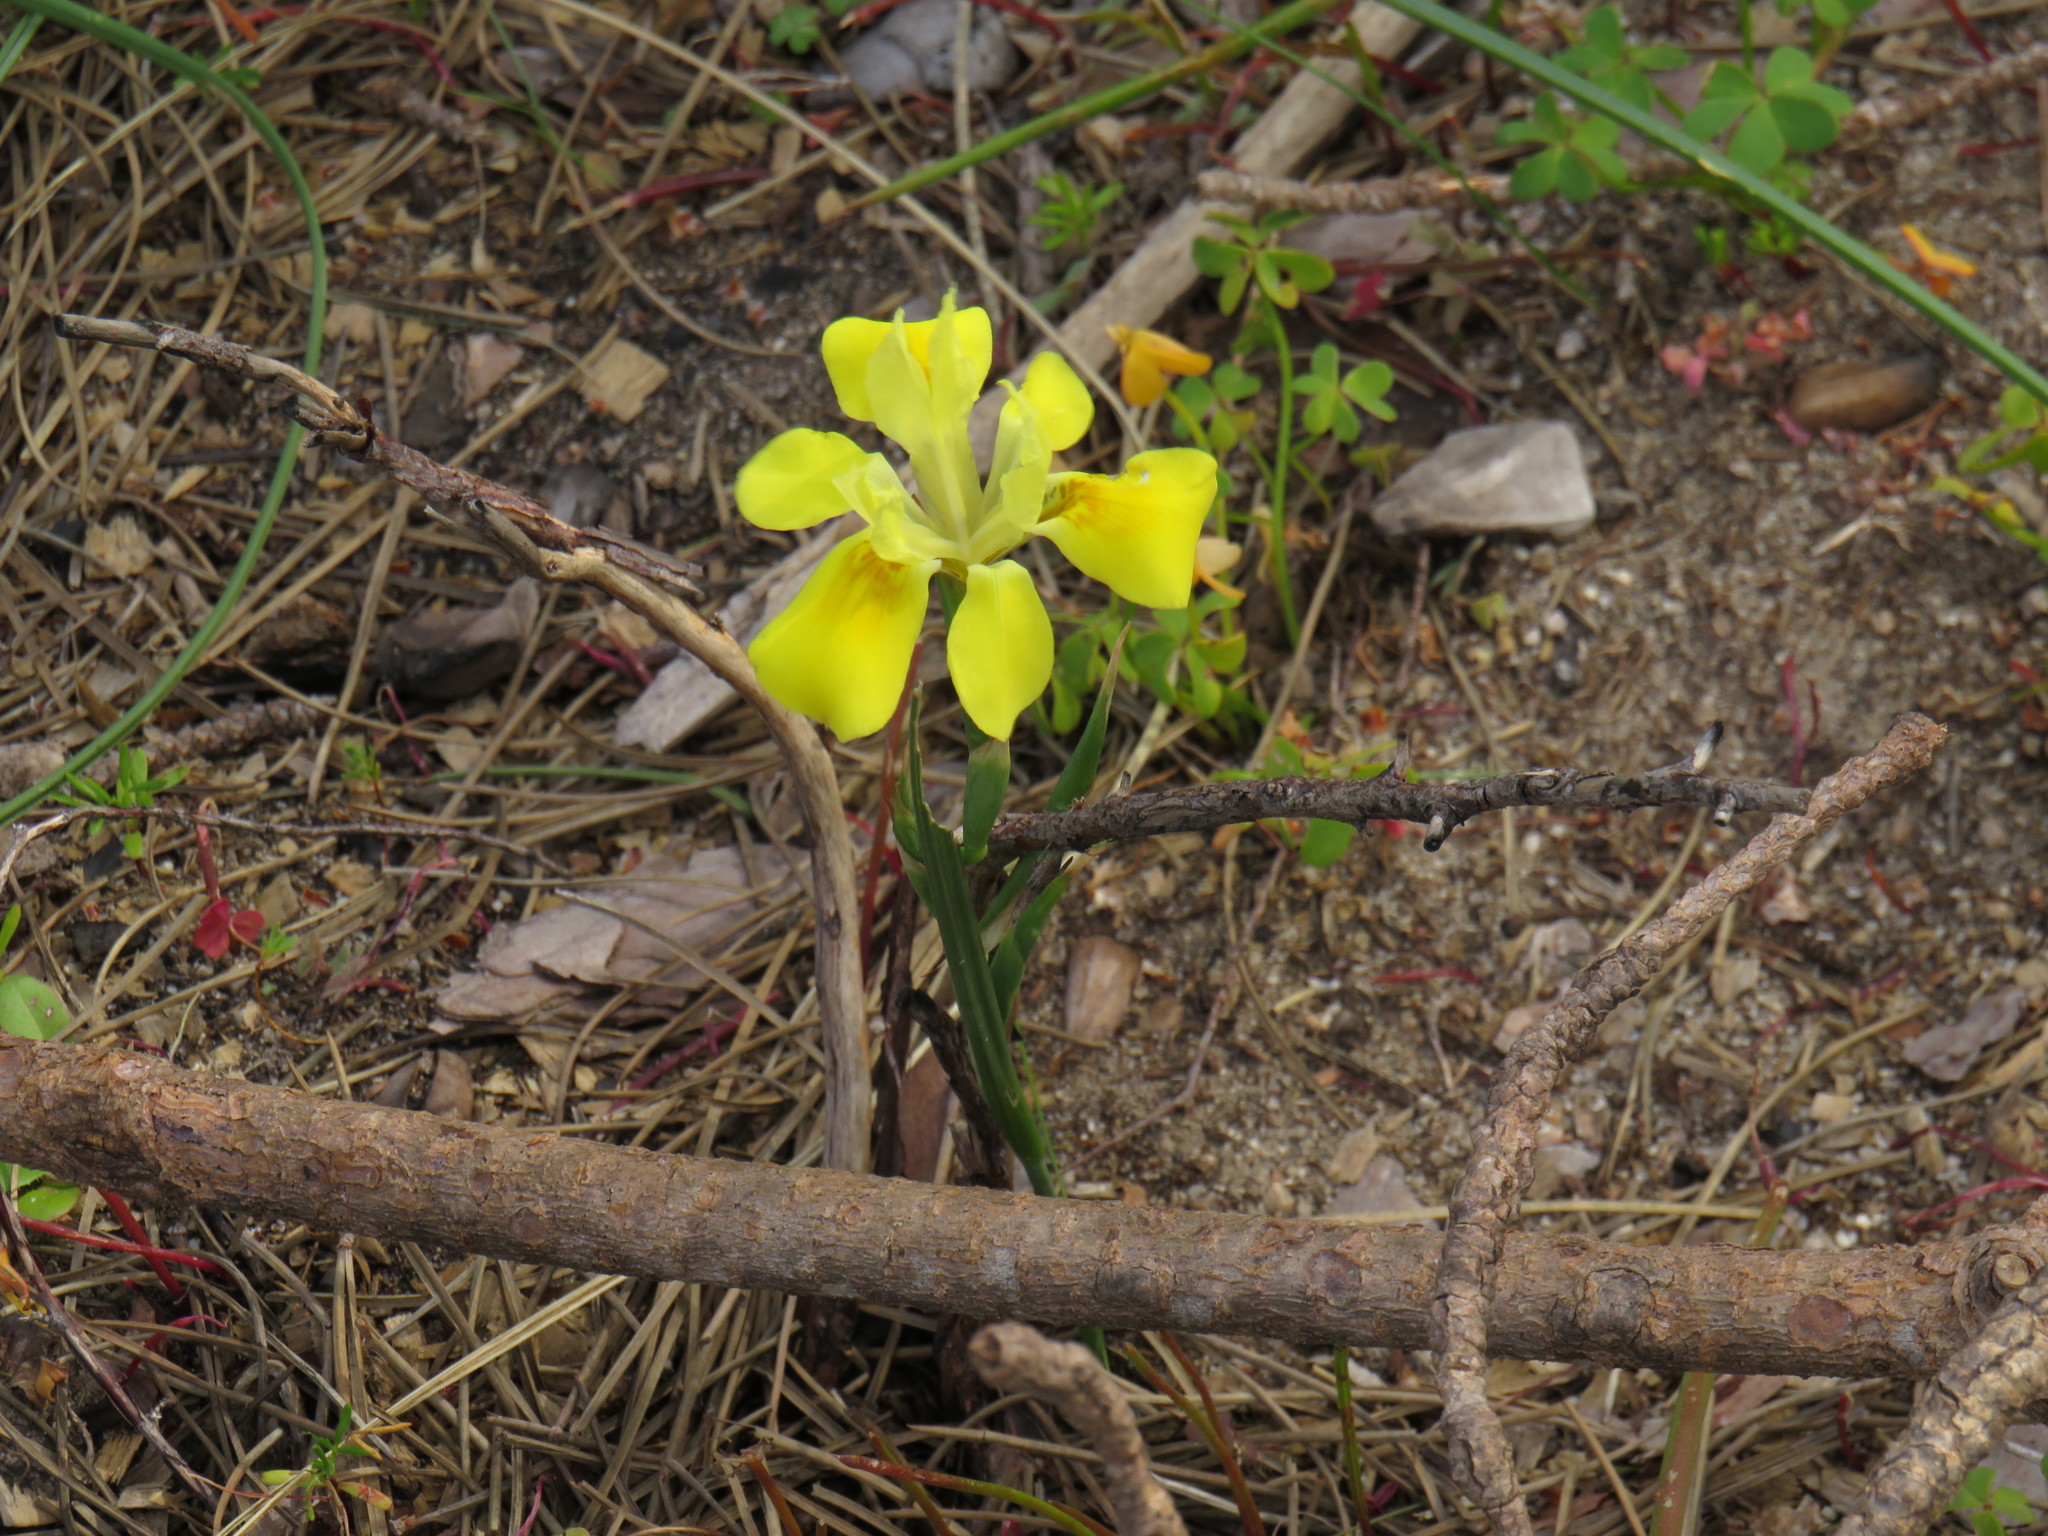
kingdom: Plantae
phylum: Tracheophyta
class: Liliopsida
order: Asparagales
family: Iridaceae
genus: Moraea
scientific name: Moraea fugax
